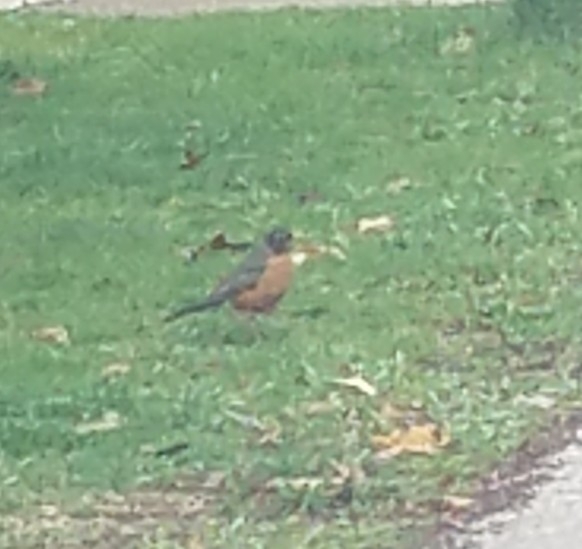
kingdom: Animalia
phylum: Chordata
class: Aves
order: Passeriformes
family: Turdidae
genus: Turdus
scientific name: Turdus migratorius
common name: American robin
